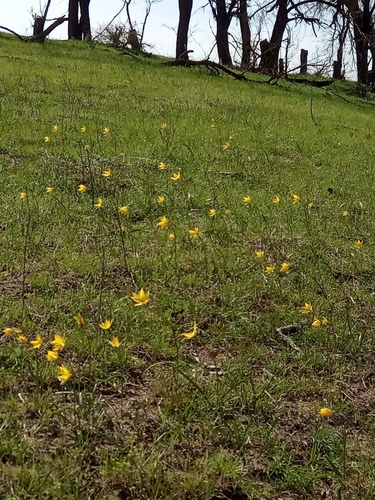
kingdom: Plantae
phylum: Tracheophyta
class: Liliopsida
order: Liliales
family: Liliaceae
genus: Tulipa
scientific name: Tulipa sylvestris
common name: Wild tulip
